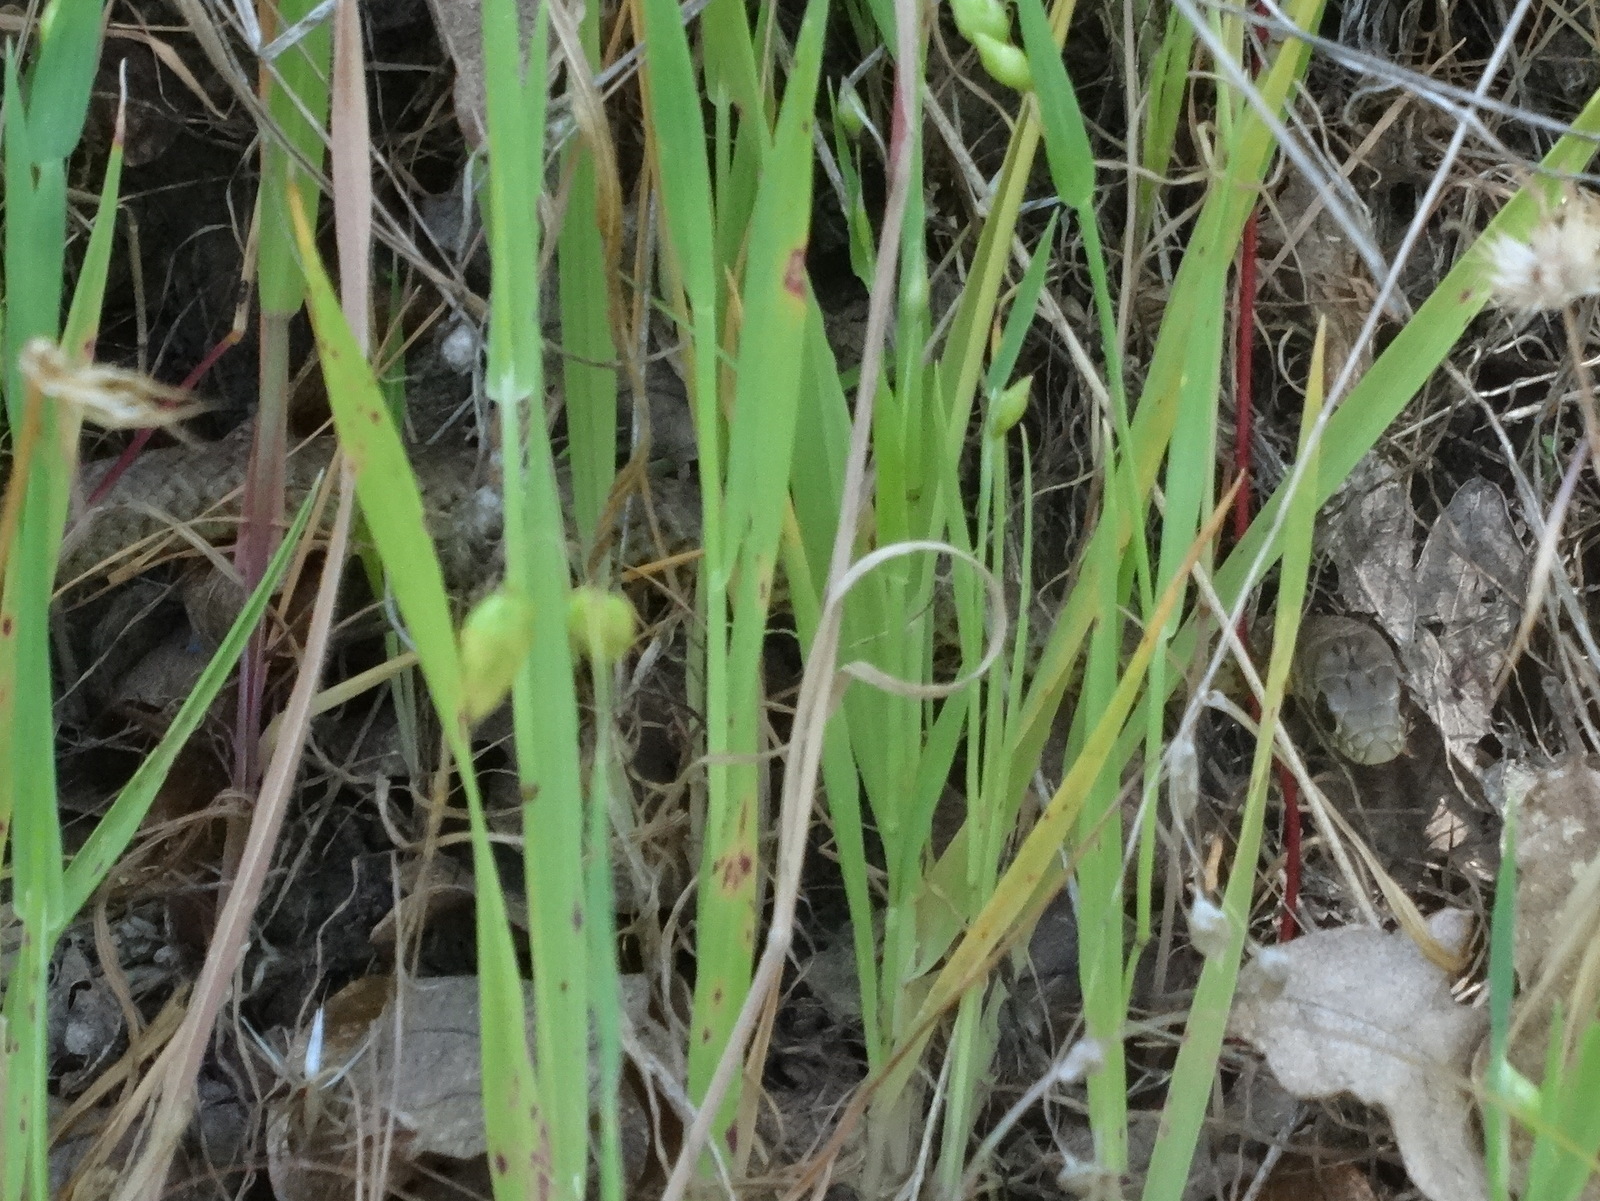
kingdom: Animalia
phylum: Chordata
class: Squamata
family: Colubridae
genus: Coluber
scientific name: Coluber constrictor
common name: Eastern racer
